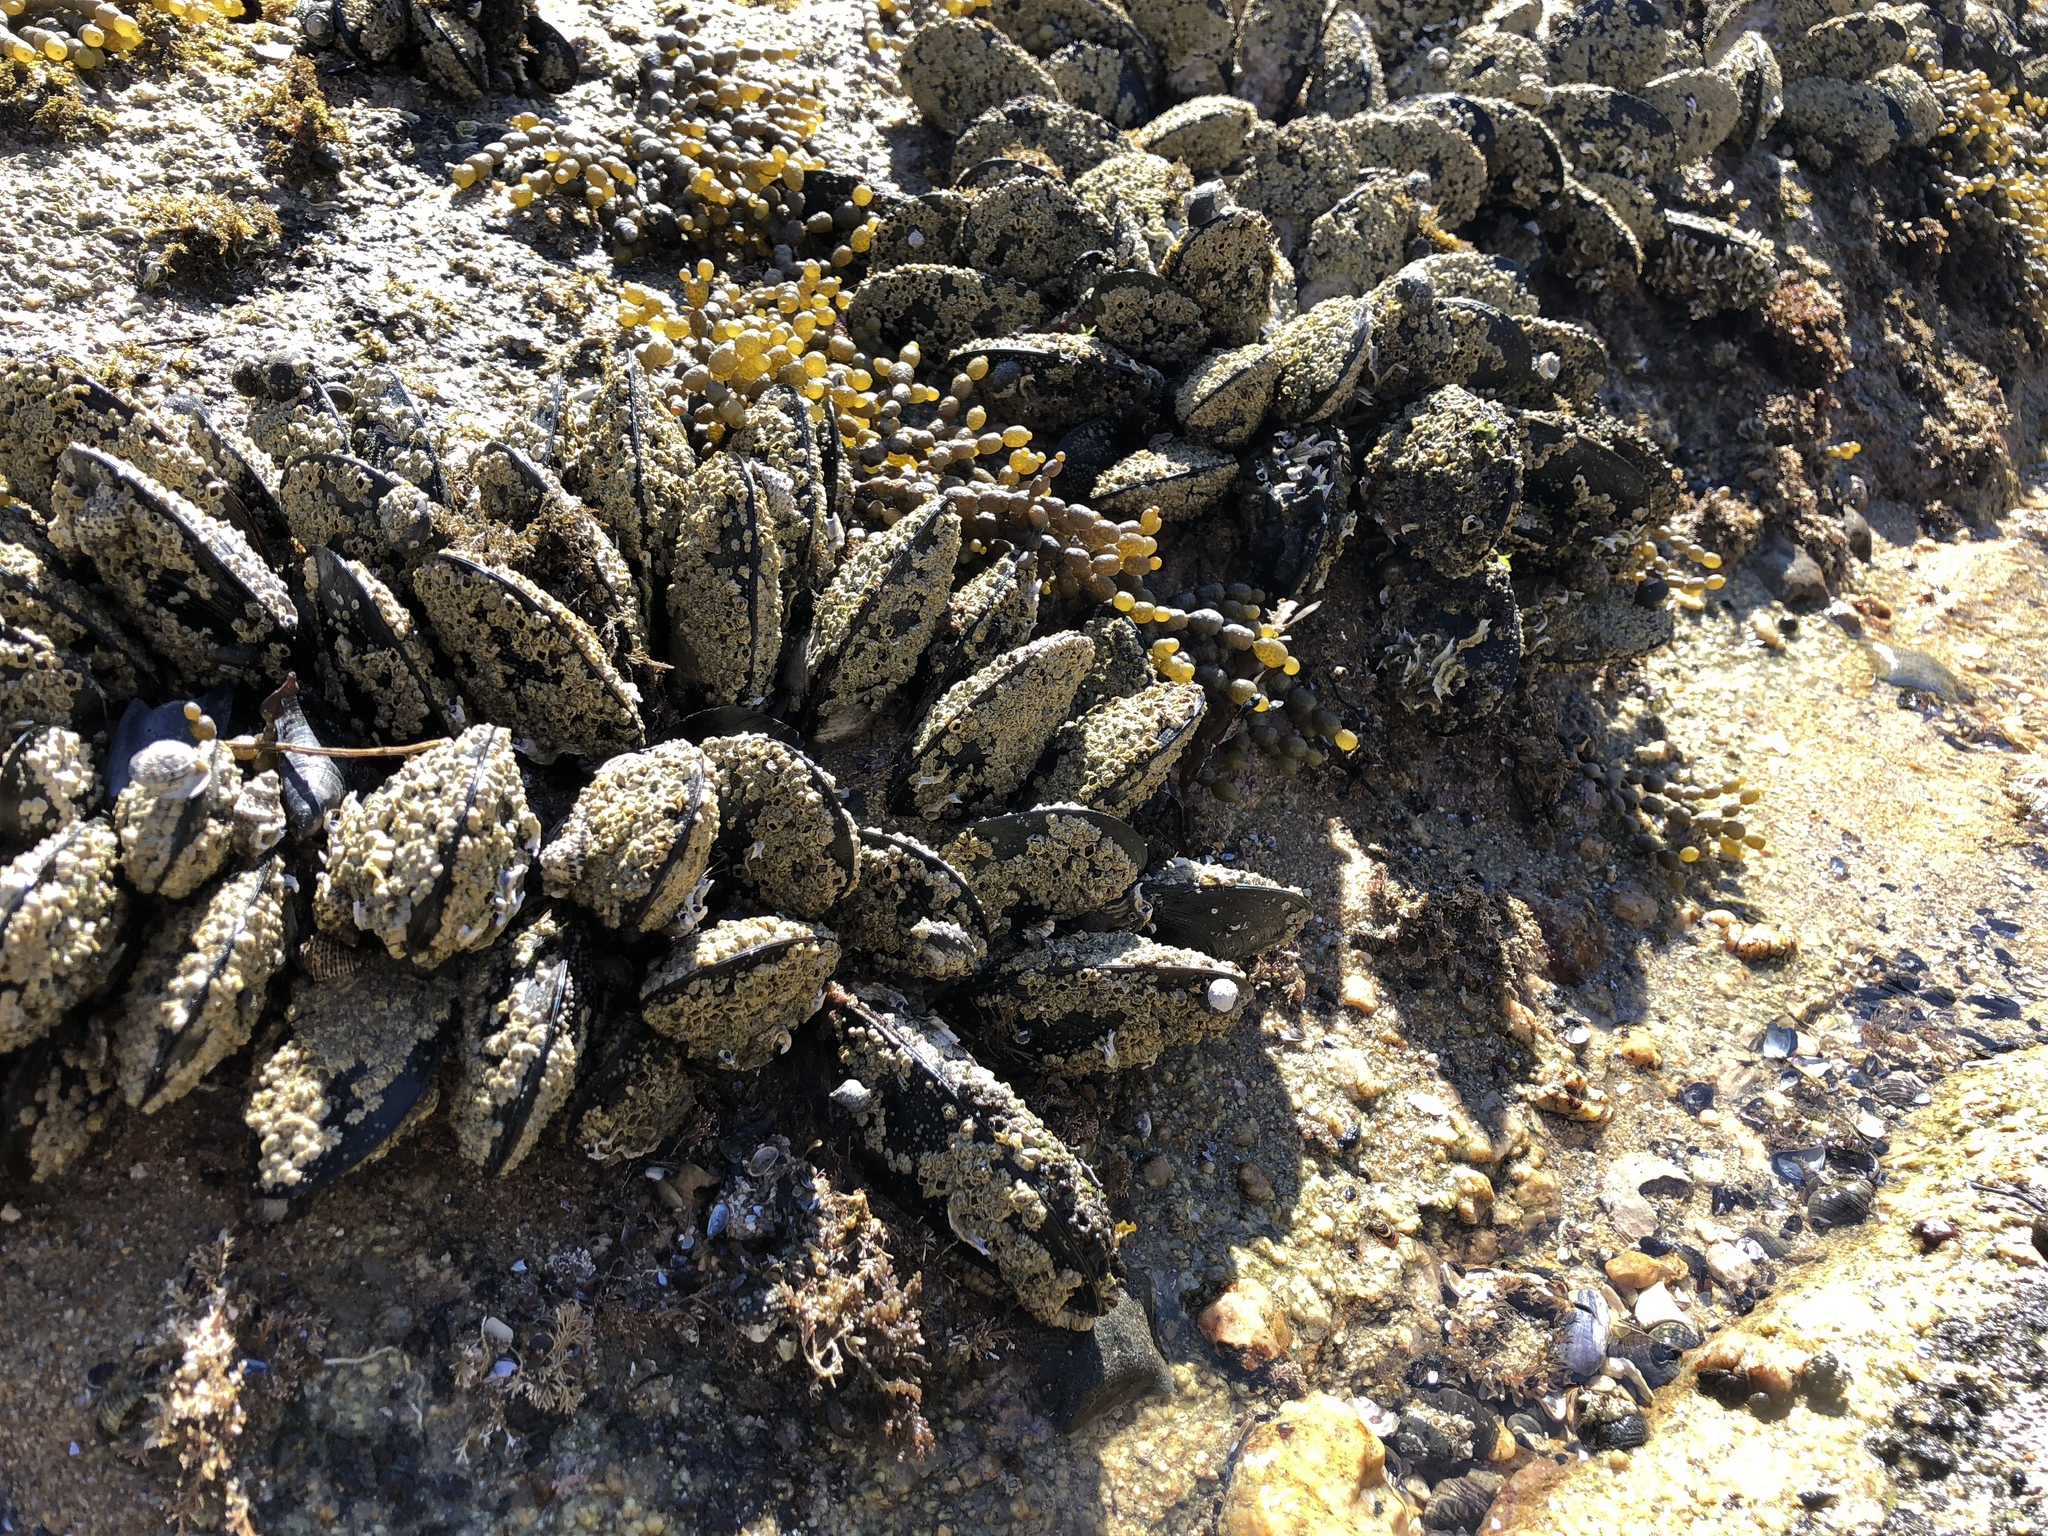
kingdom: Animalia
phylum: Mollusca
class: Bivalvia
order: Mytilida
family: Mytilidae
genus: Perna
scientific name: Perna canaliculus
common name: New zealand greenshelltm
